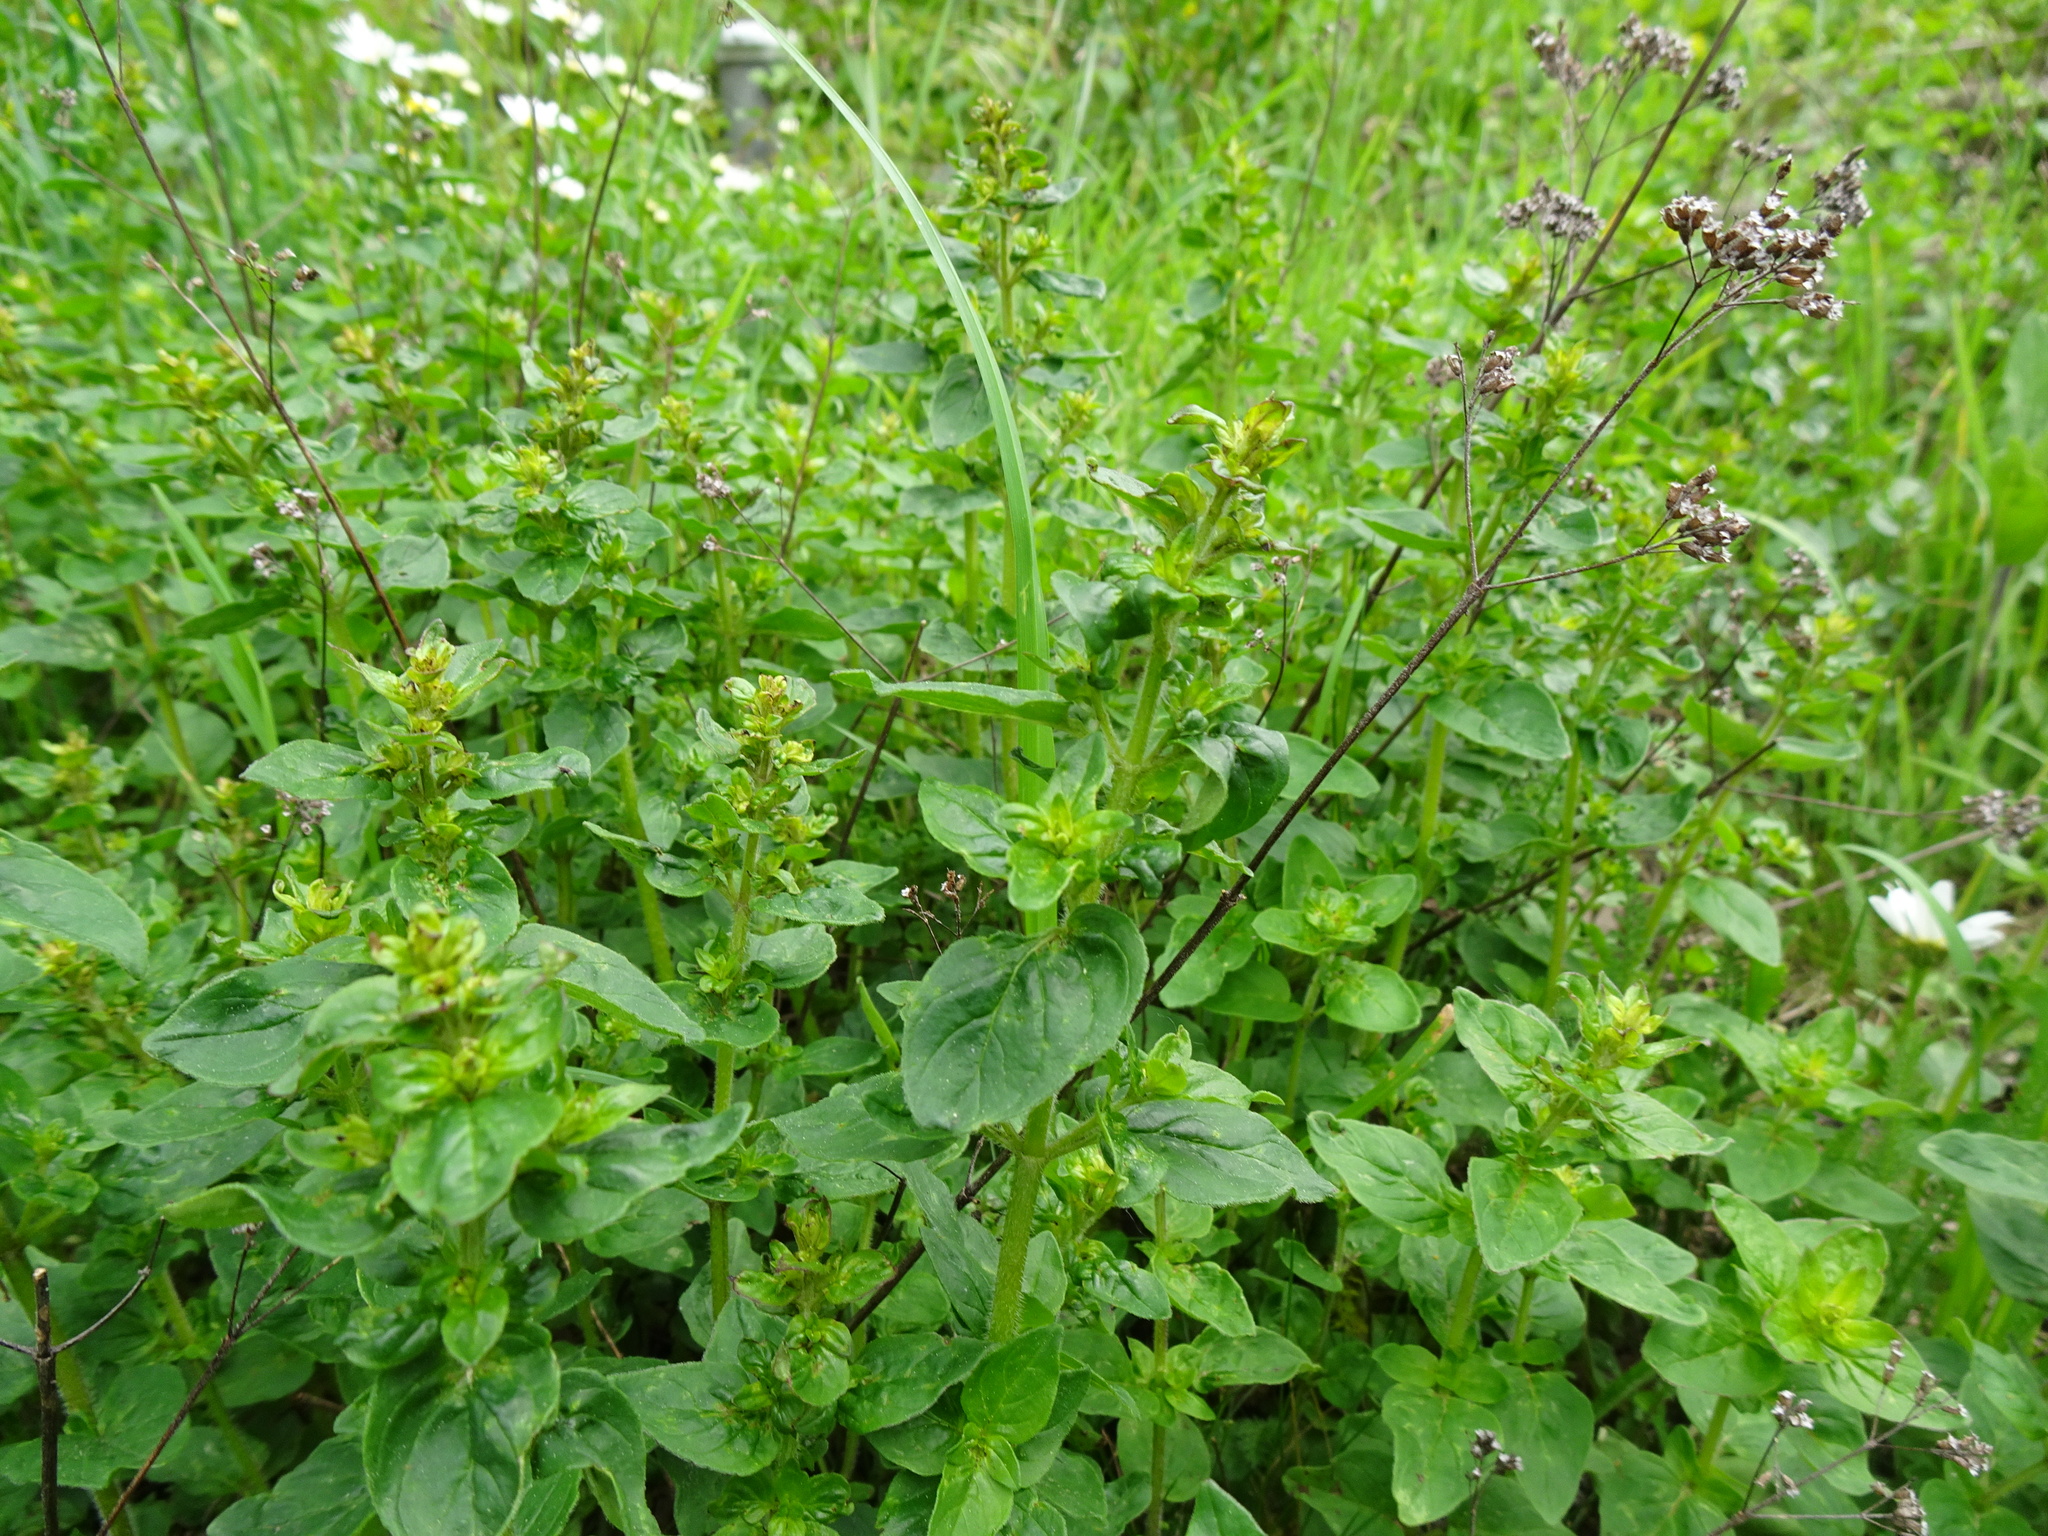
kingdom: Plantae
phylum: Tracheophyta
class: Magnoliopsida
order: Lamiales
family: Lamiaceae
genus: Origanum
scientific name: Origanum vulgare
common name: Wild marjoram
